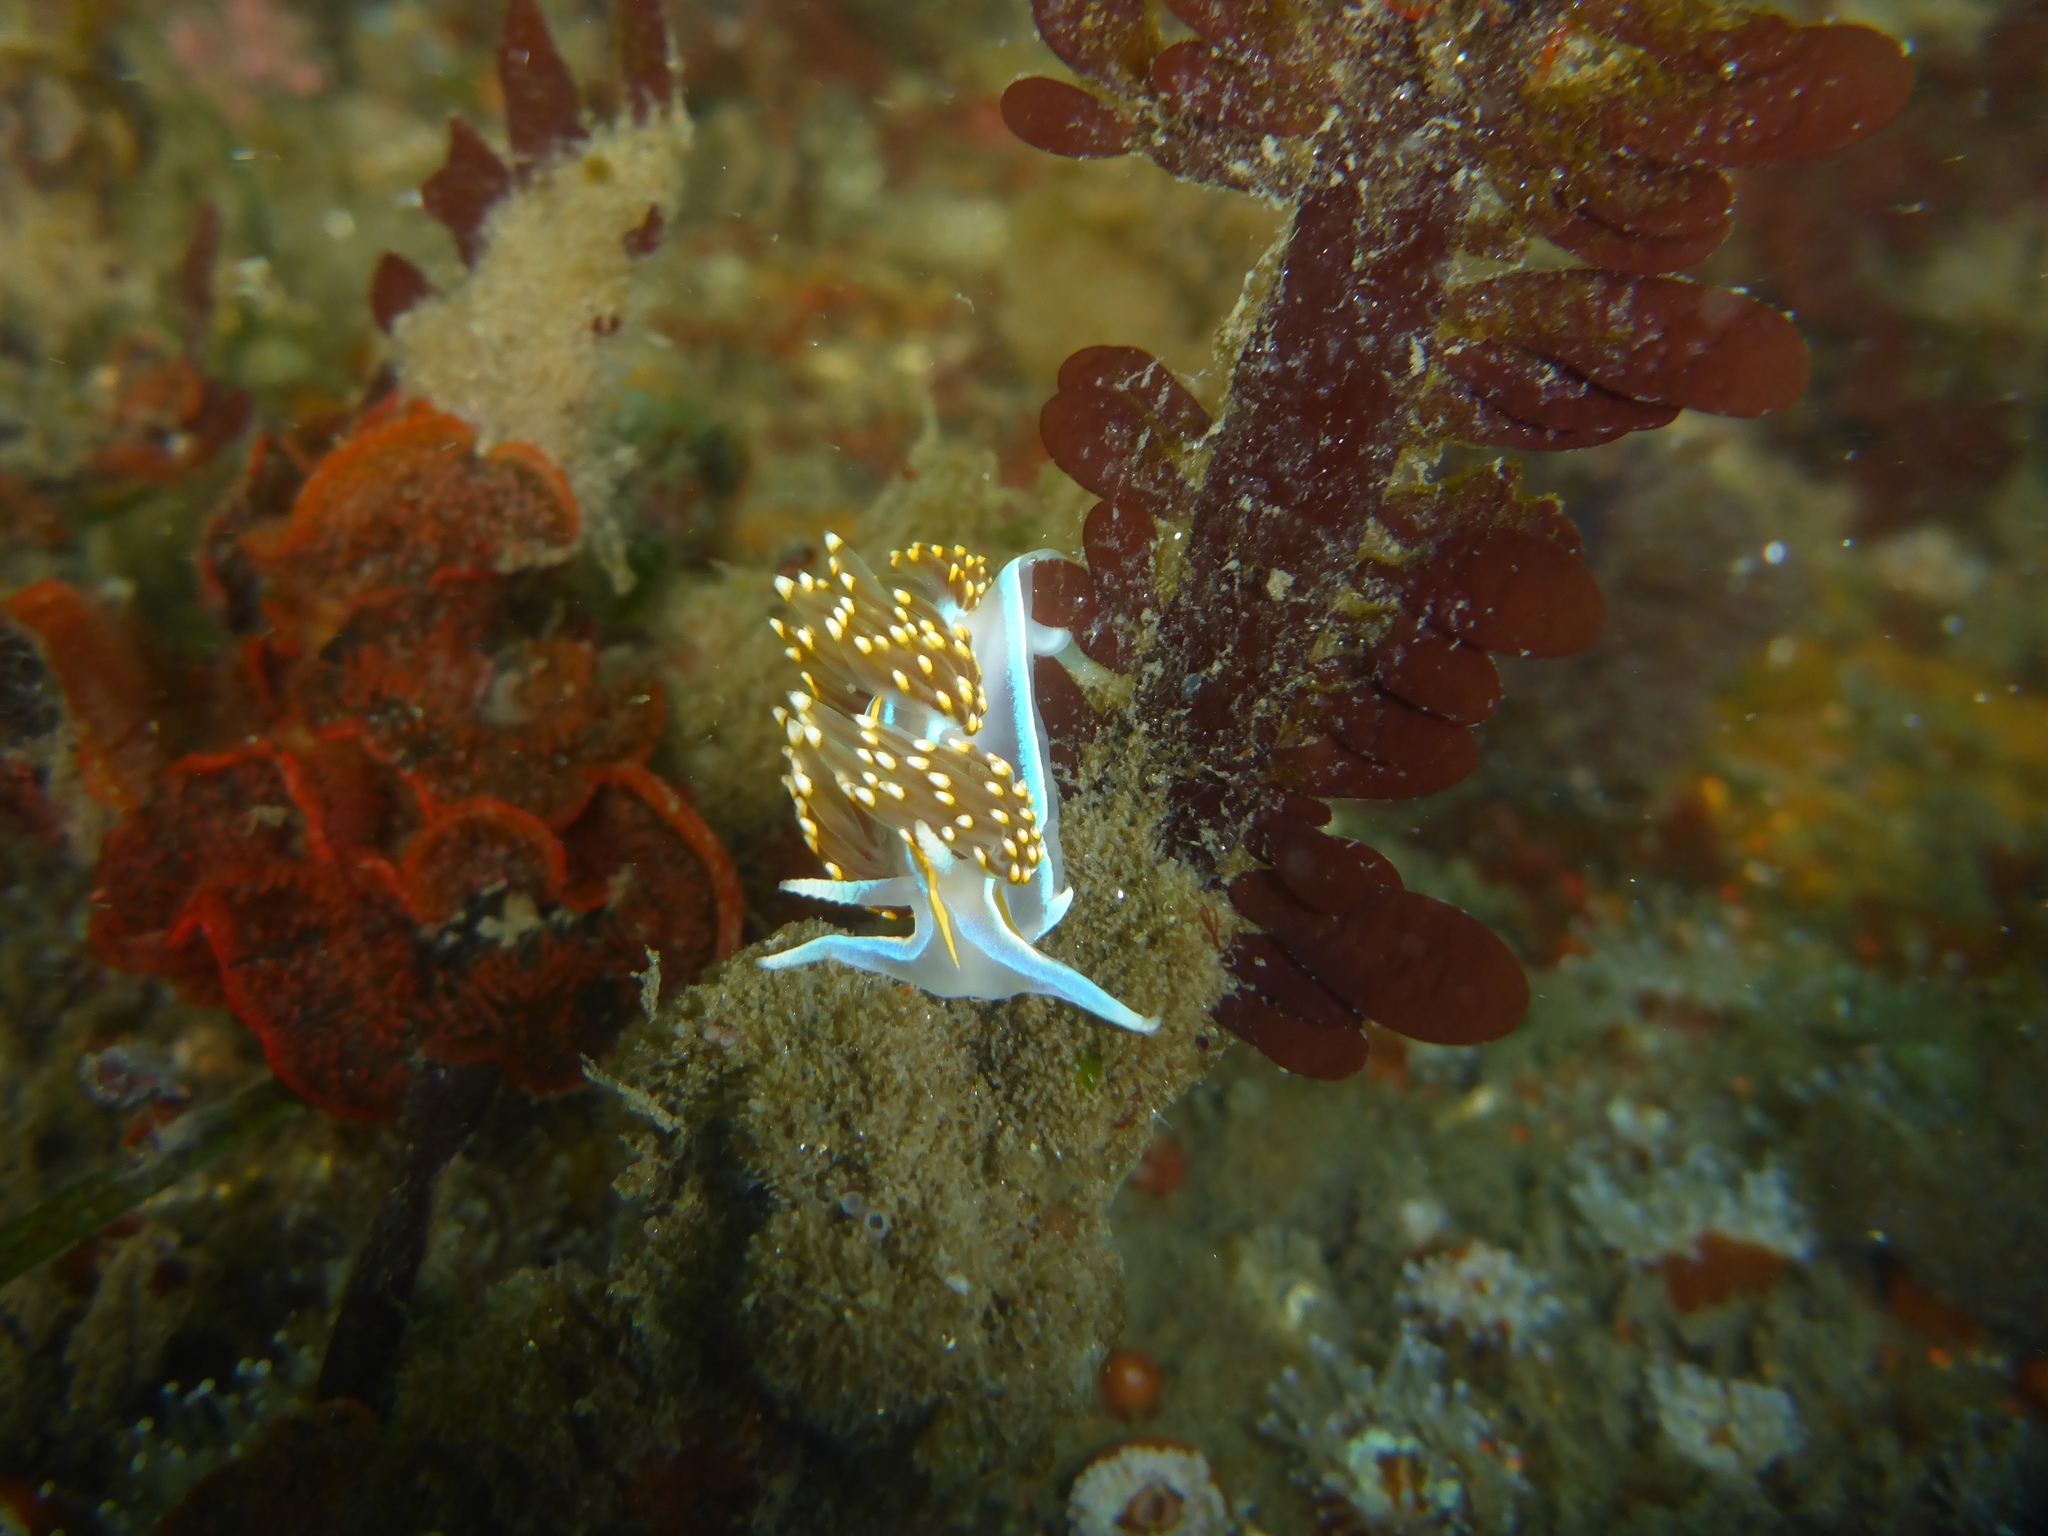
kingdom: Animalia
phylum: Mollusca
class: Gastropoda
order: Nudibranchia
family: Myrrhinidae
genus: Hermissenda
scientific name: Hermissenda opalescens
